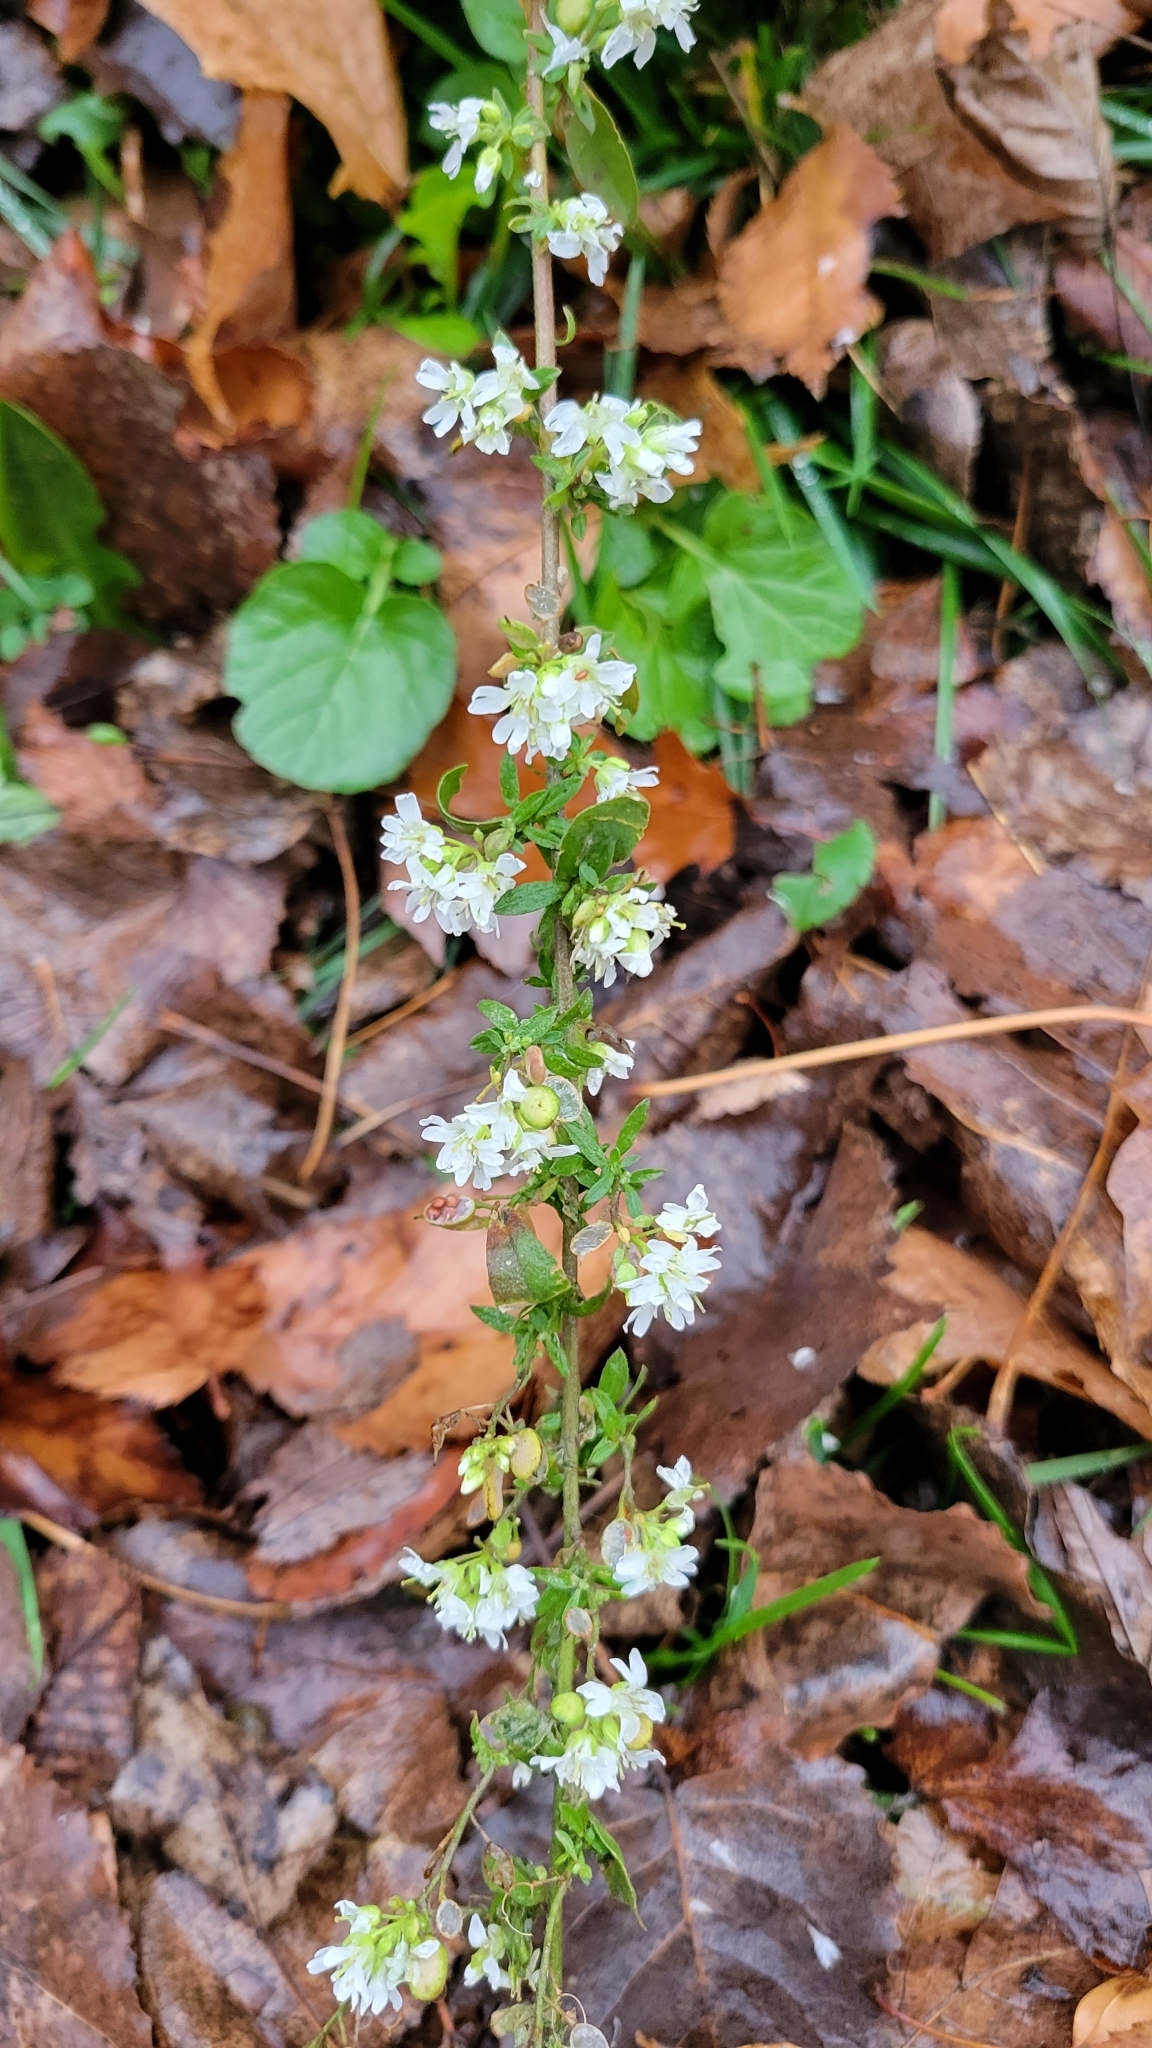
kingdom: Plantae
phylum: Tracheophyta
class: Magnoliopsida
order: Brassicales
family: Brassicaceae
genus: Berteroa
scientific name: Berteroa incana
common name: Hoary alison
